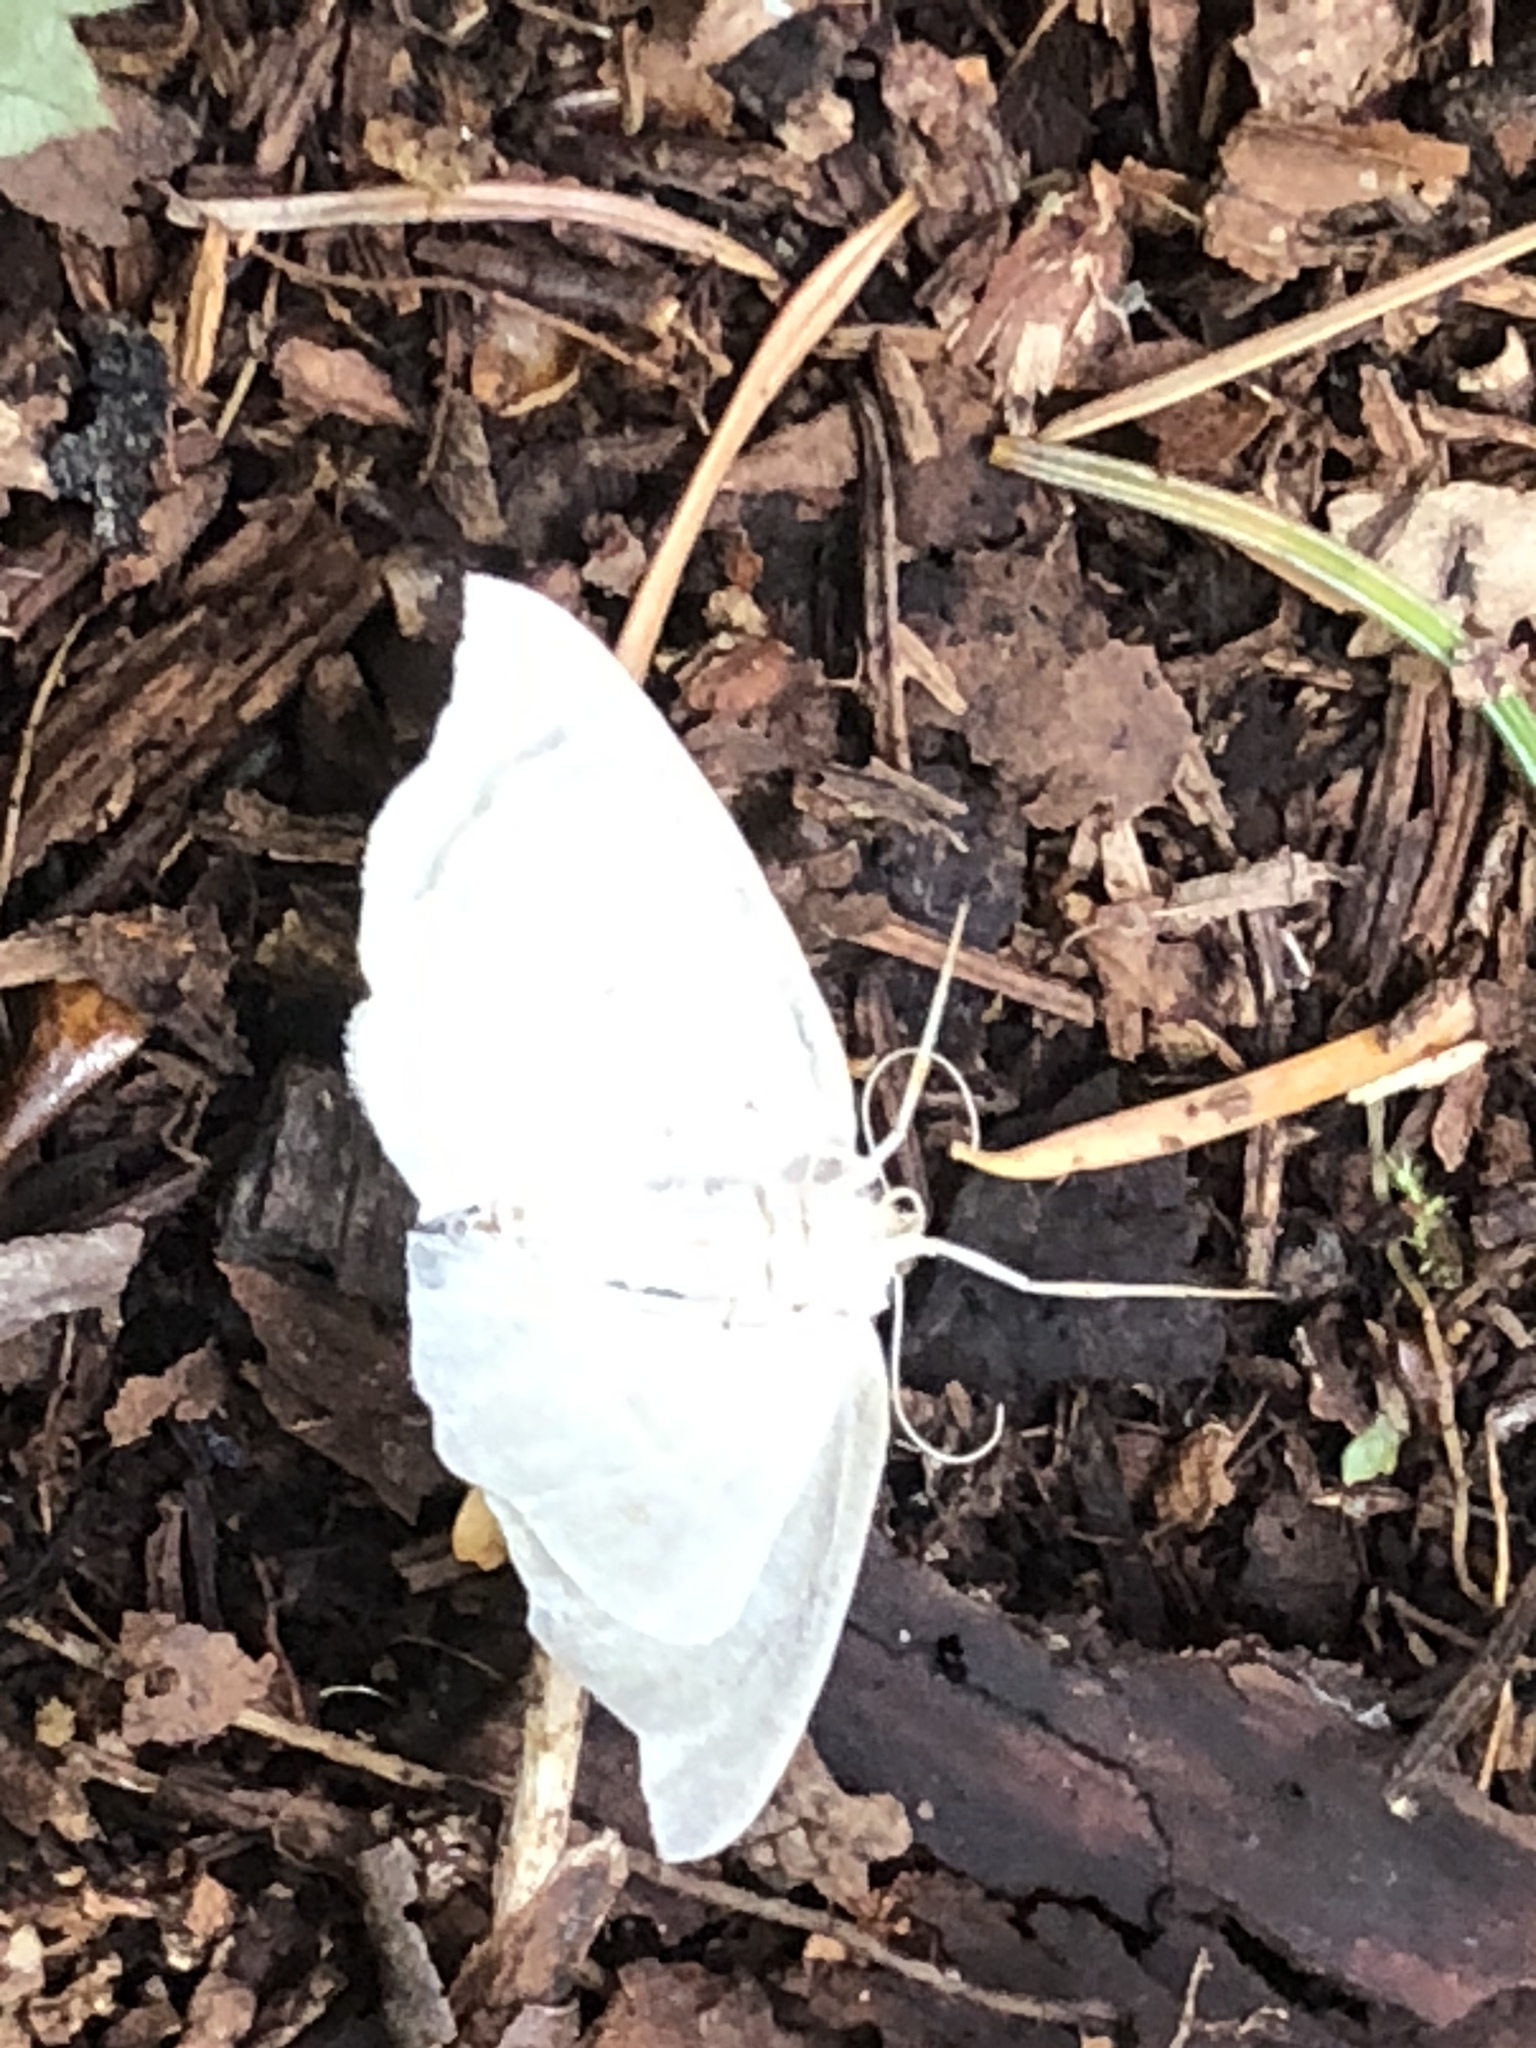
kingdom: Animalia
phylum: Arthropoda
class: Insecta
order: Lepidoptera
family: Geometridae
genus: Campaea
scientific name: Campaea perlata
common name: Fringed looper
